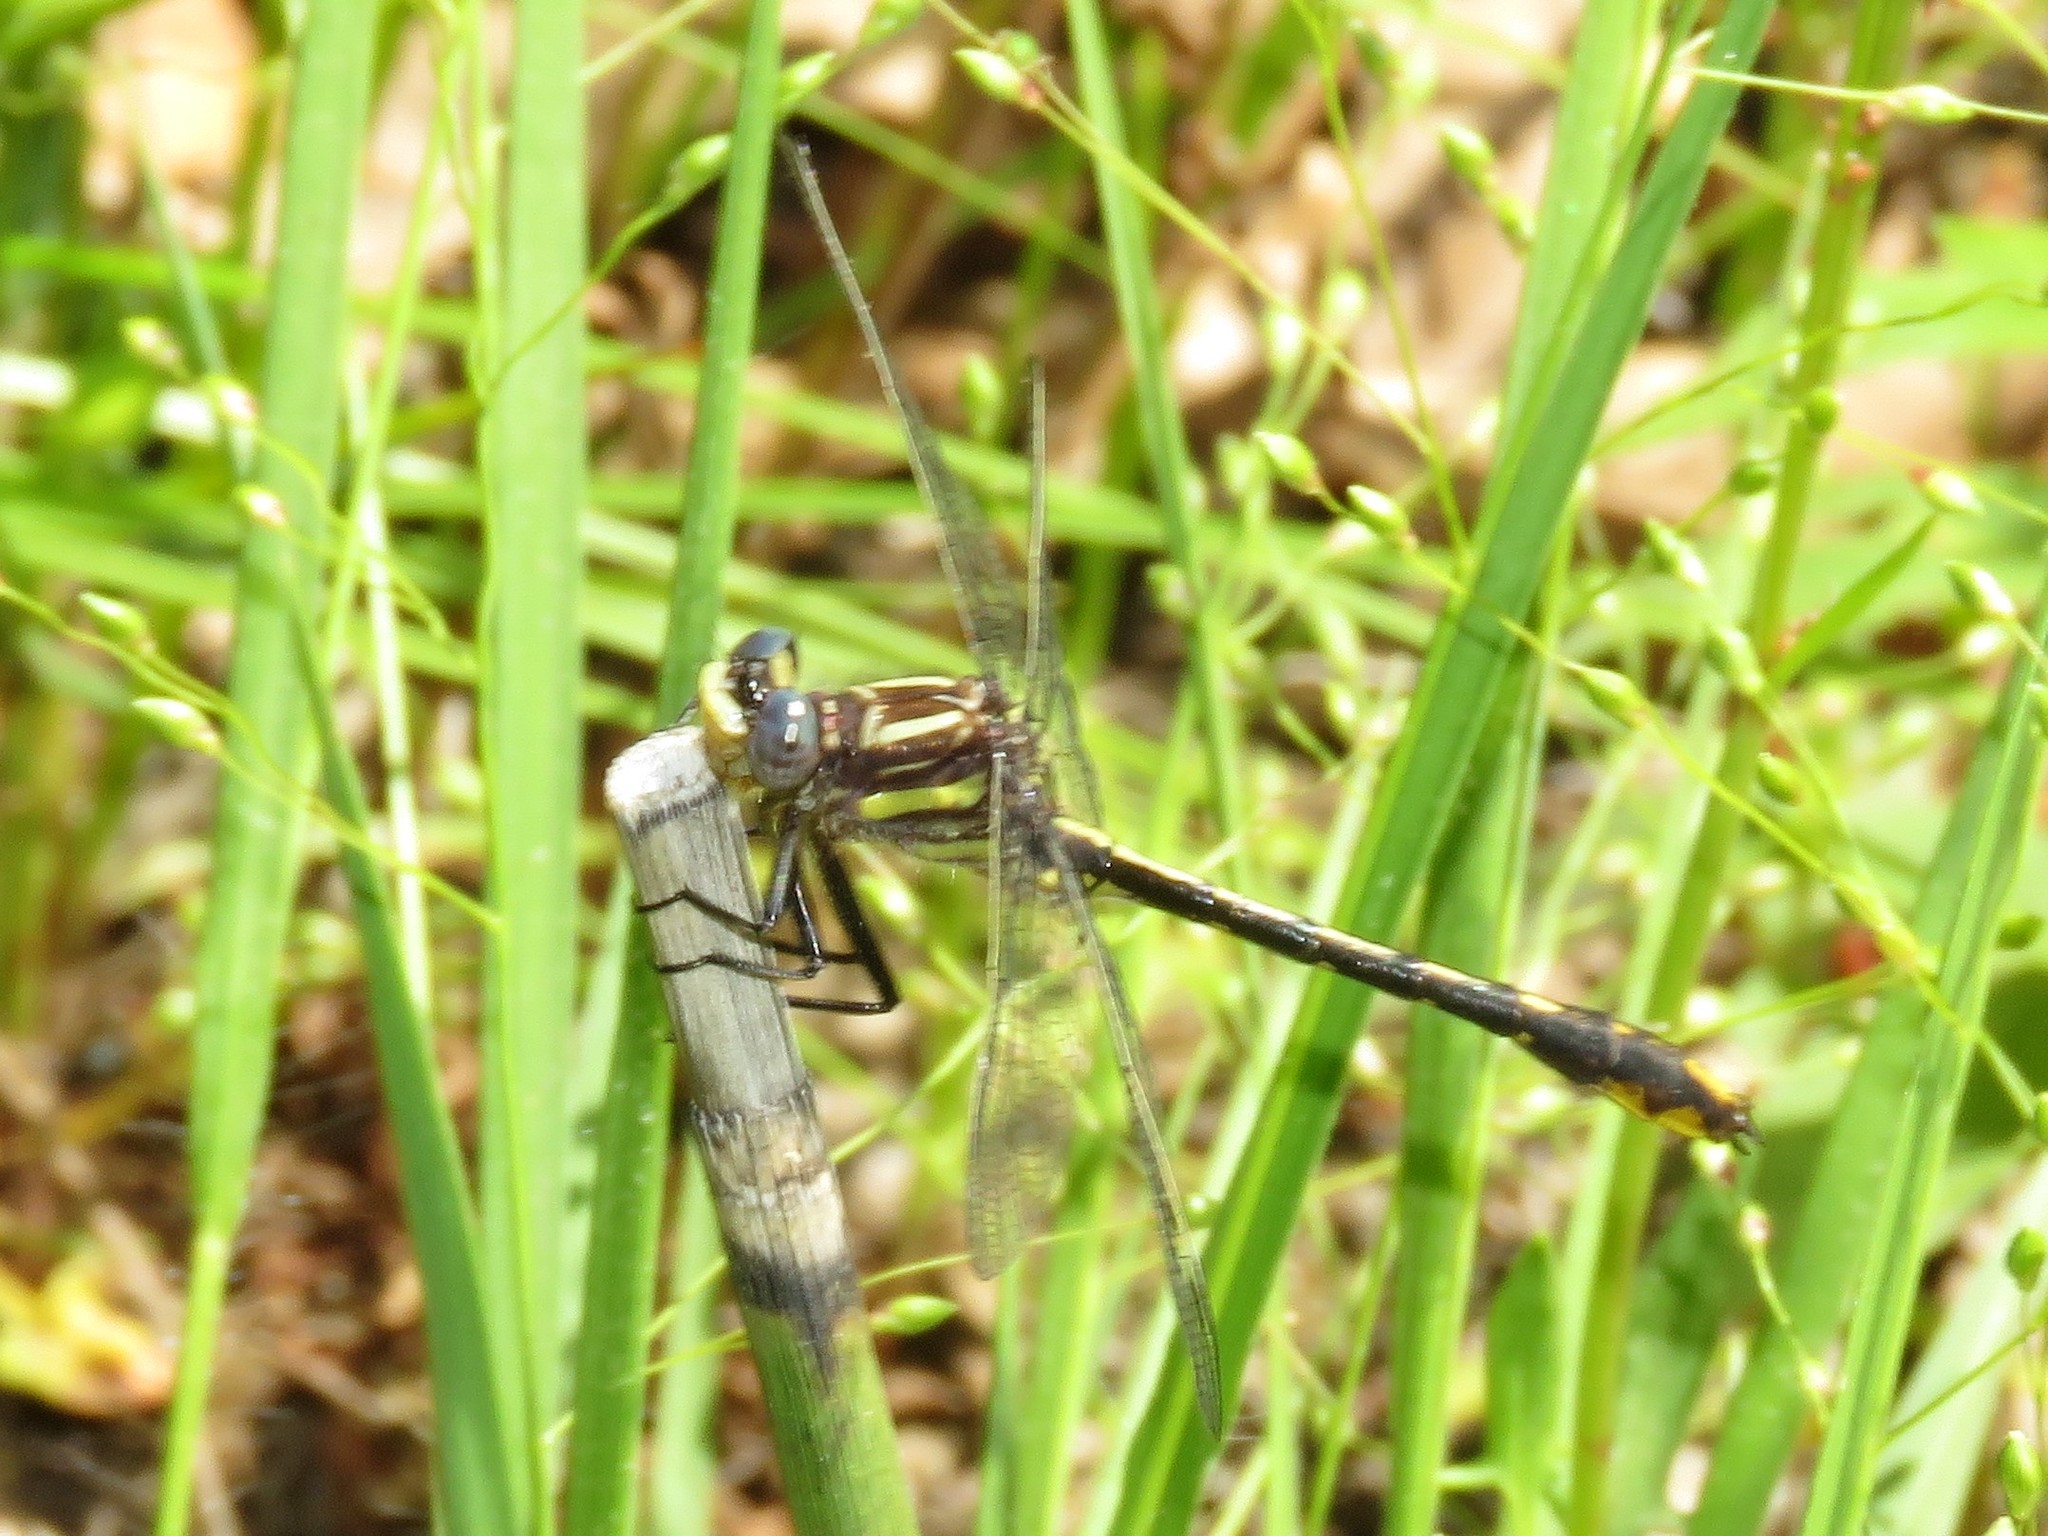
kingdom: Animalia
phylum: Arthropoda
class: Insecta
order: Odonata
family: Gomphidae
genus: Phanogomphus
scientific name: Phanogomphus exilis
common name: Lancet clubtail
